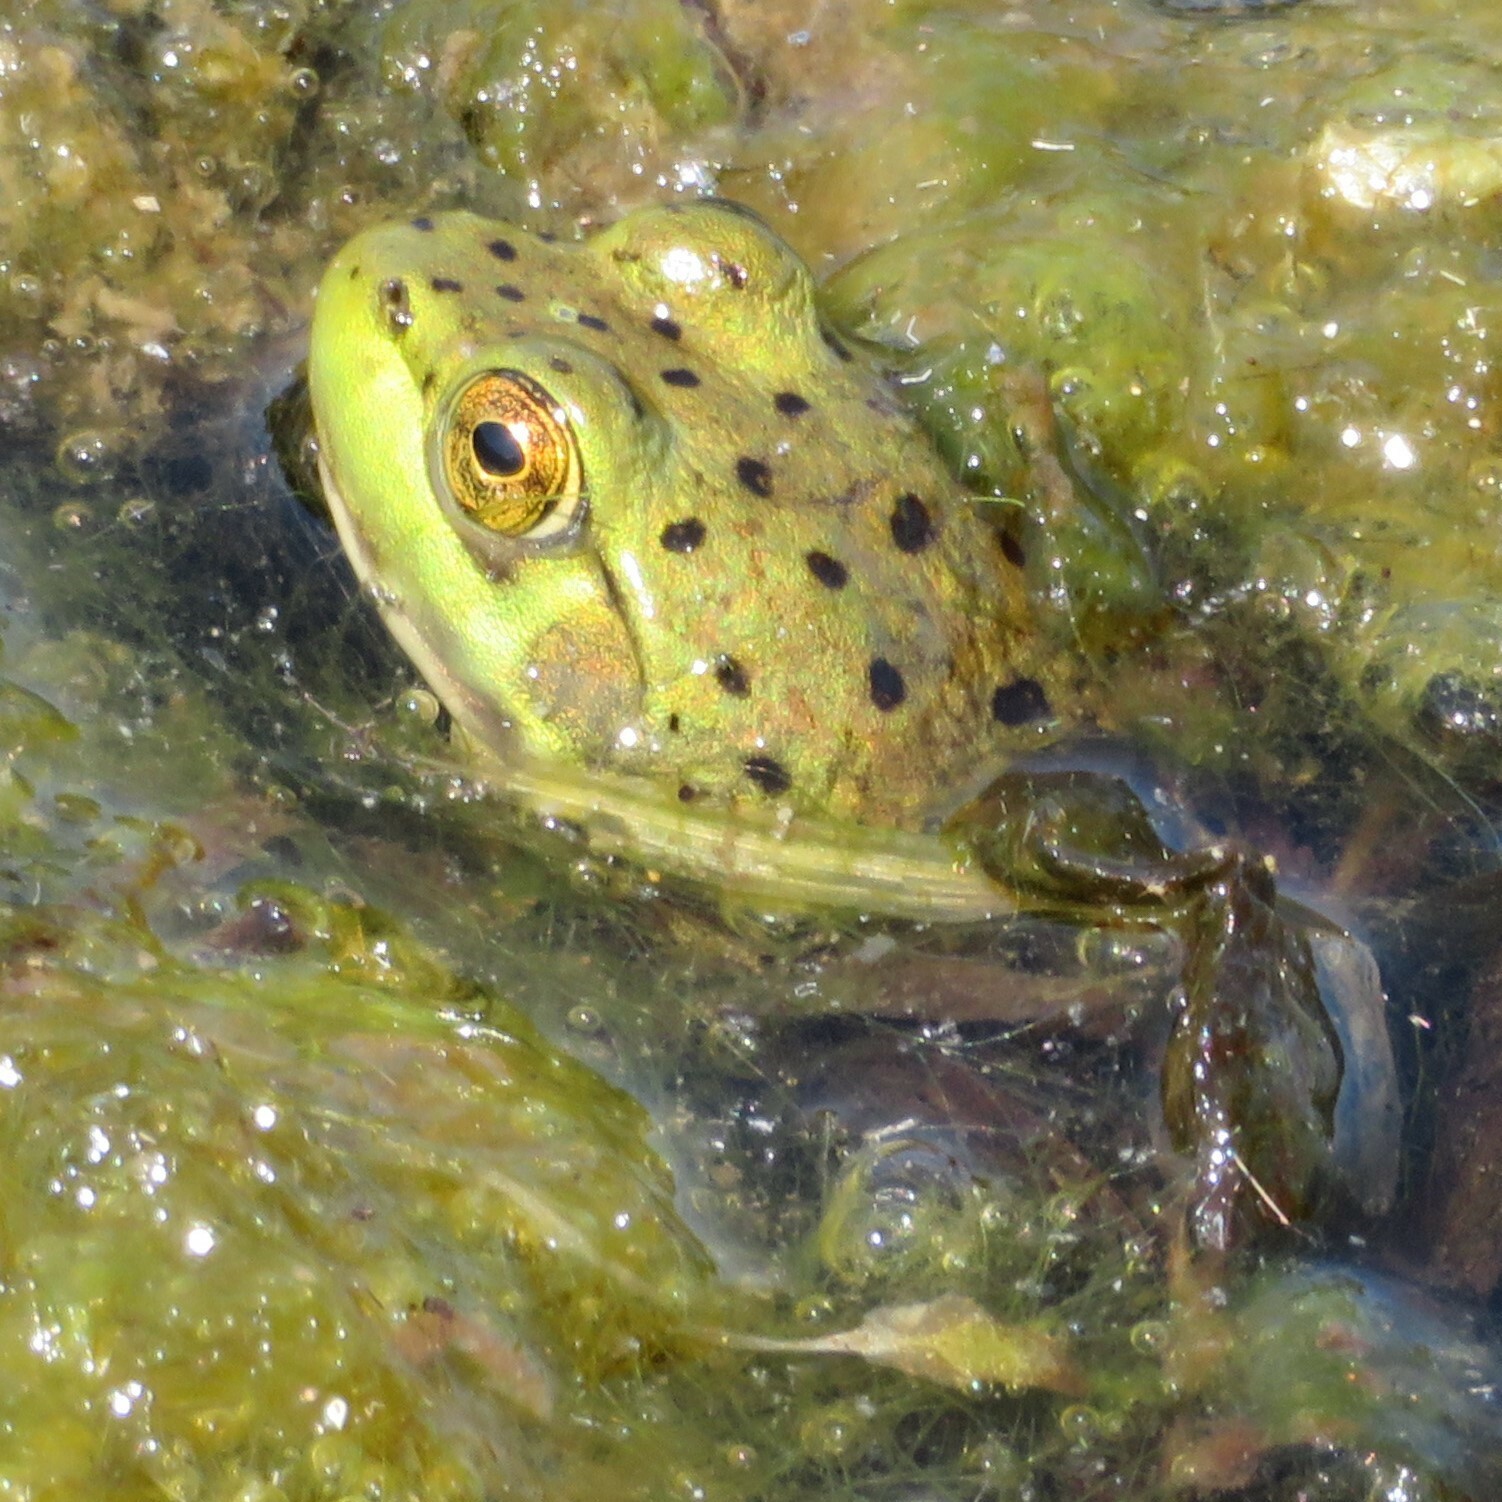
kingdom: Animalia
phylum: Chordata
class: Amphibia
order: Anura
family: Ranidae
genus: Lithobates
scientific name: Lithobates catesbeianus
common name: American bullfrog
